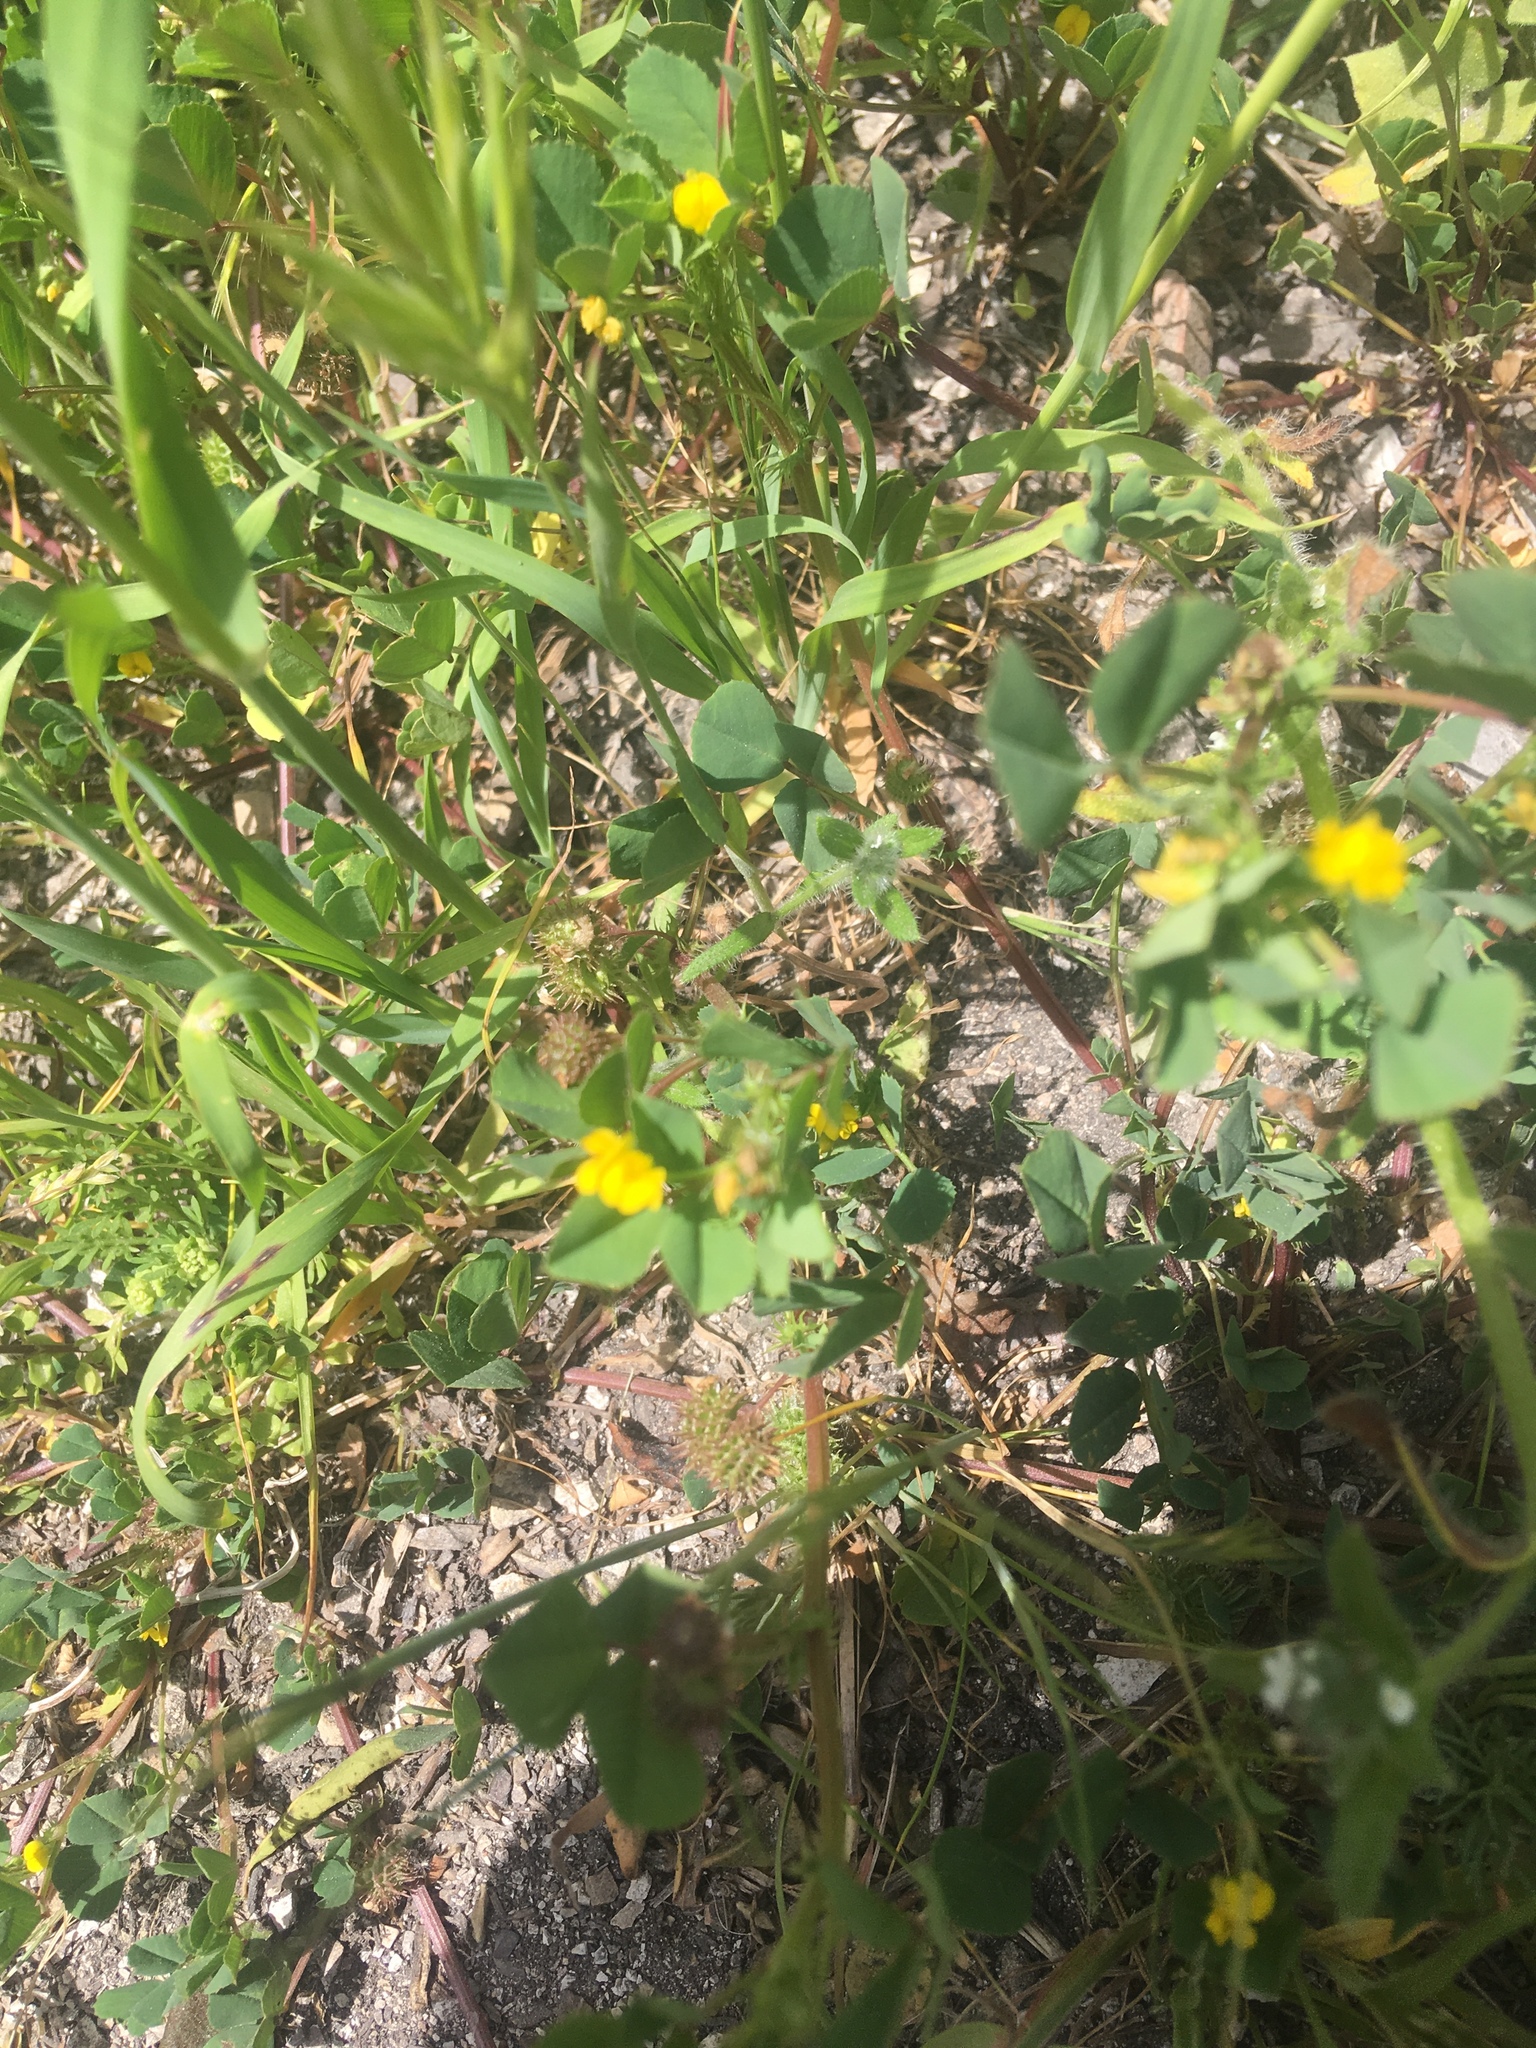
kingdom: Plantae
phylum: Tracheophyta
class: Magnoliopsida
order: Fabales
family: Fabaceae
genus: Medicago
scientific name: Medicago polymorpha
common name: Burclover
